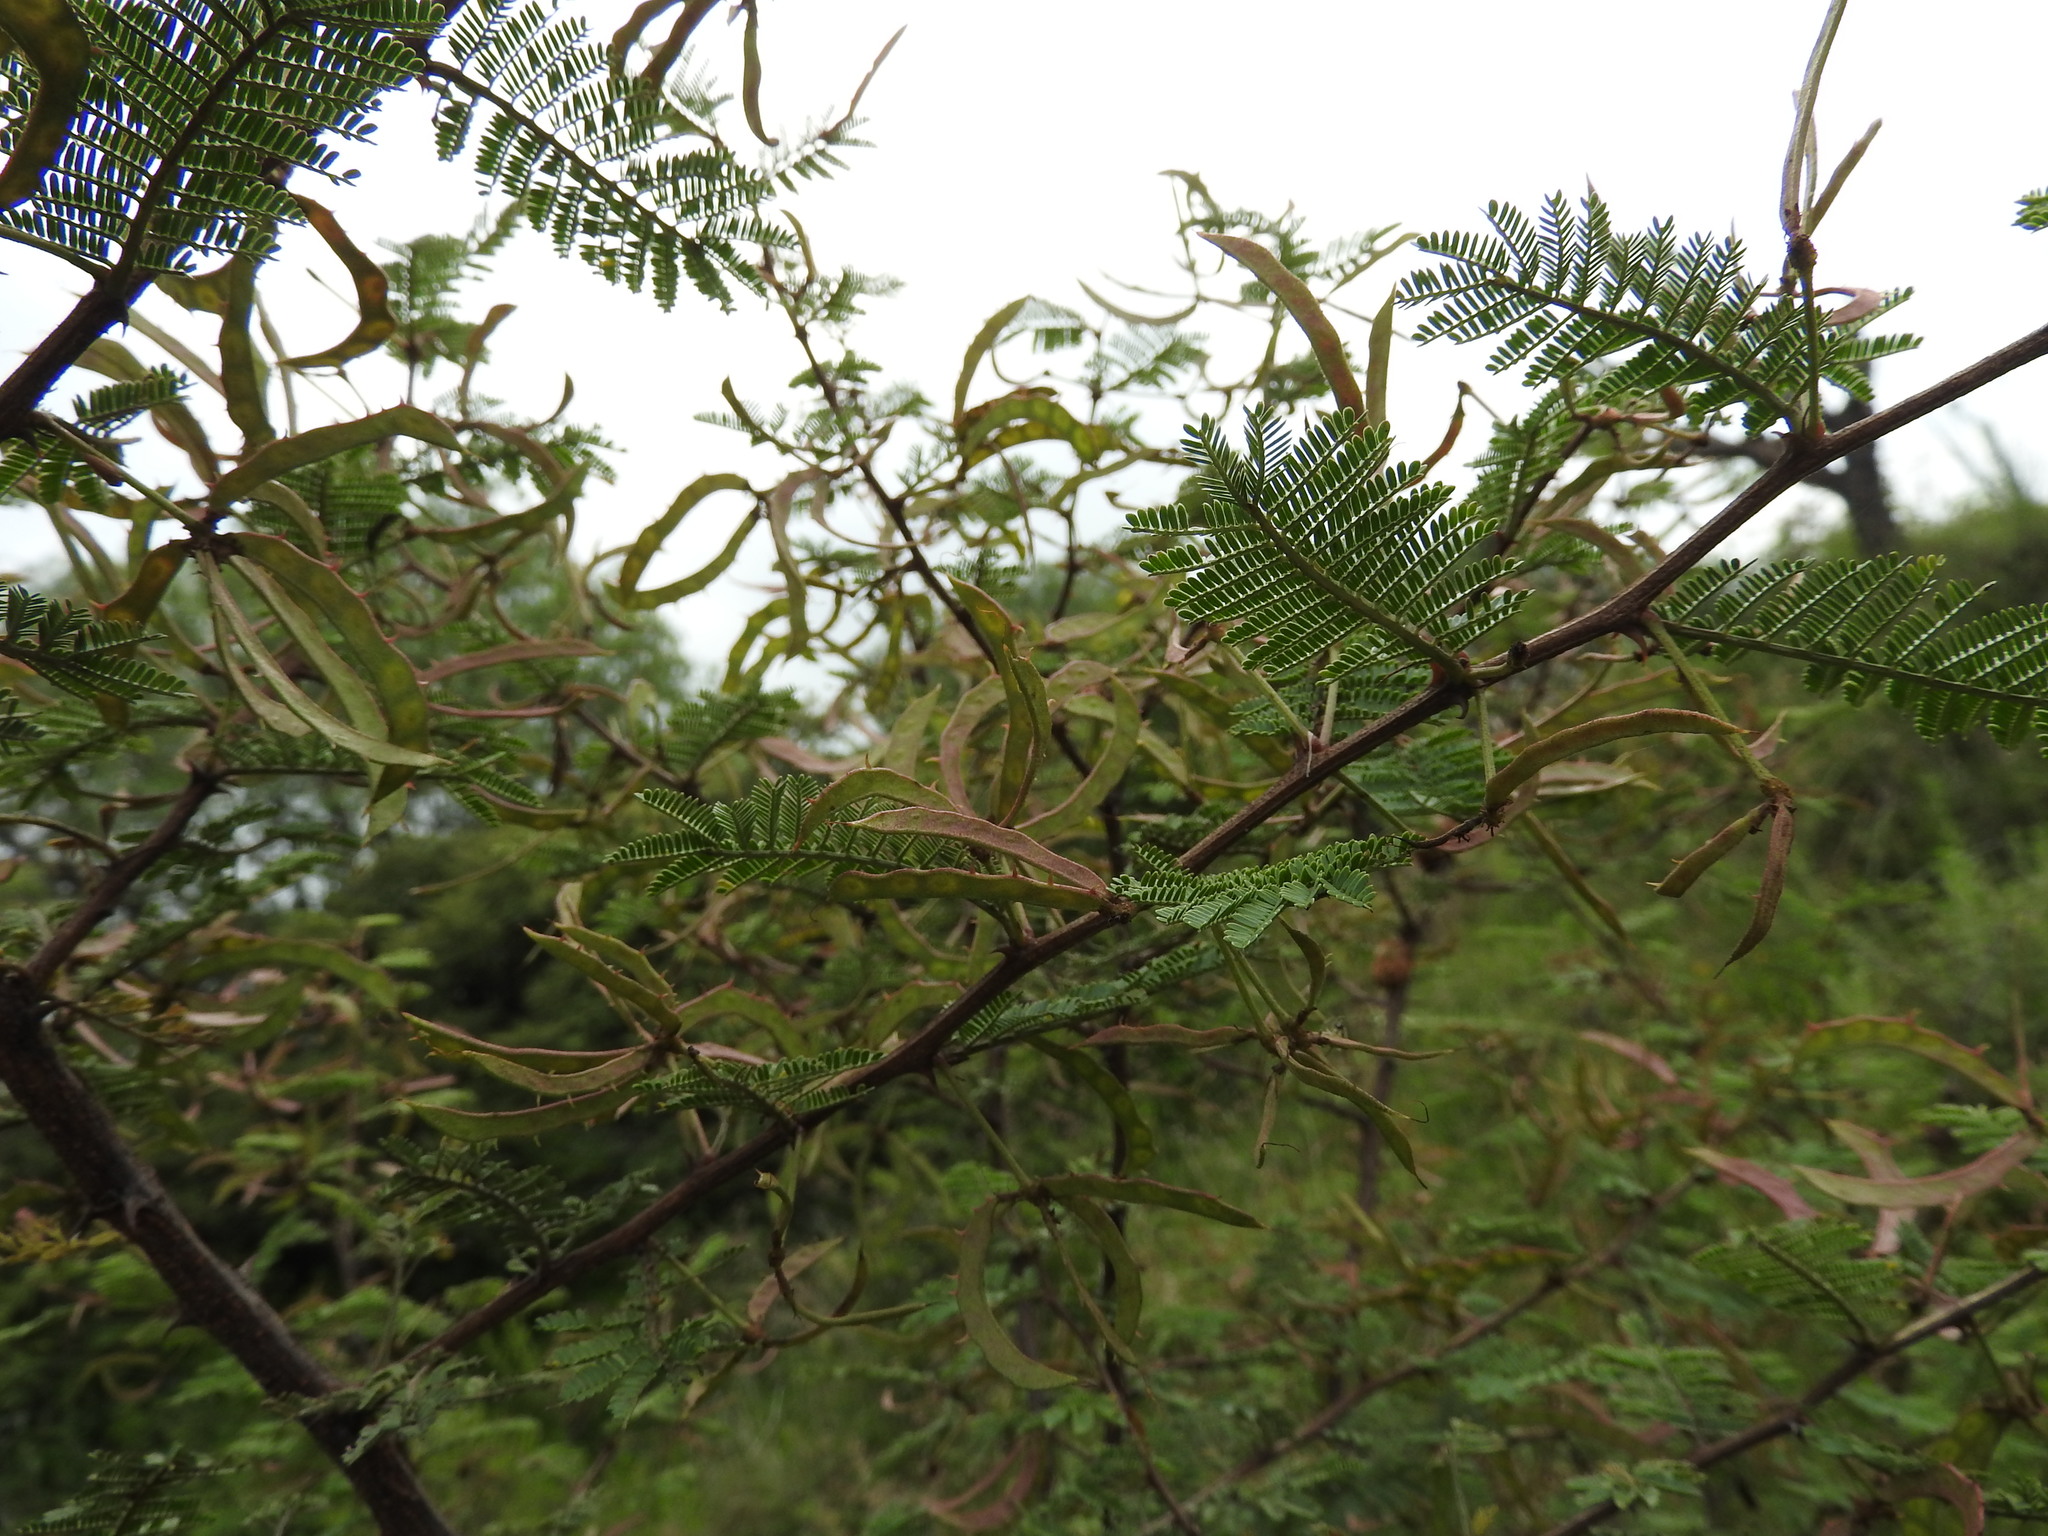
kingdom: Plantae
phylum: Tracheophyta
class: Magnoliopsida
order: Fabales
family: Fabaceae
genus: Mimosa
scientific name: Mimosa aculeaticarpa
